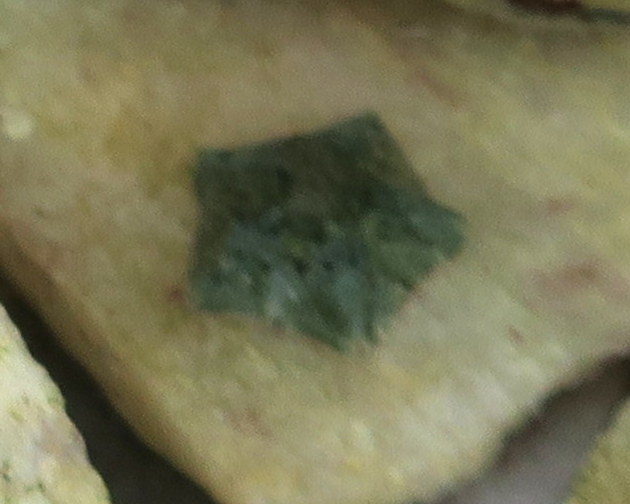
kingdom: Animalia
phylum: Echinodermata
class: Asteroidea
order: Valvatida
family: Asterinidae
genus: Parvulastra
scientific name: Parvulastra exigua
